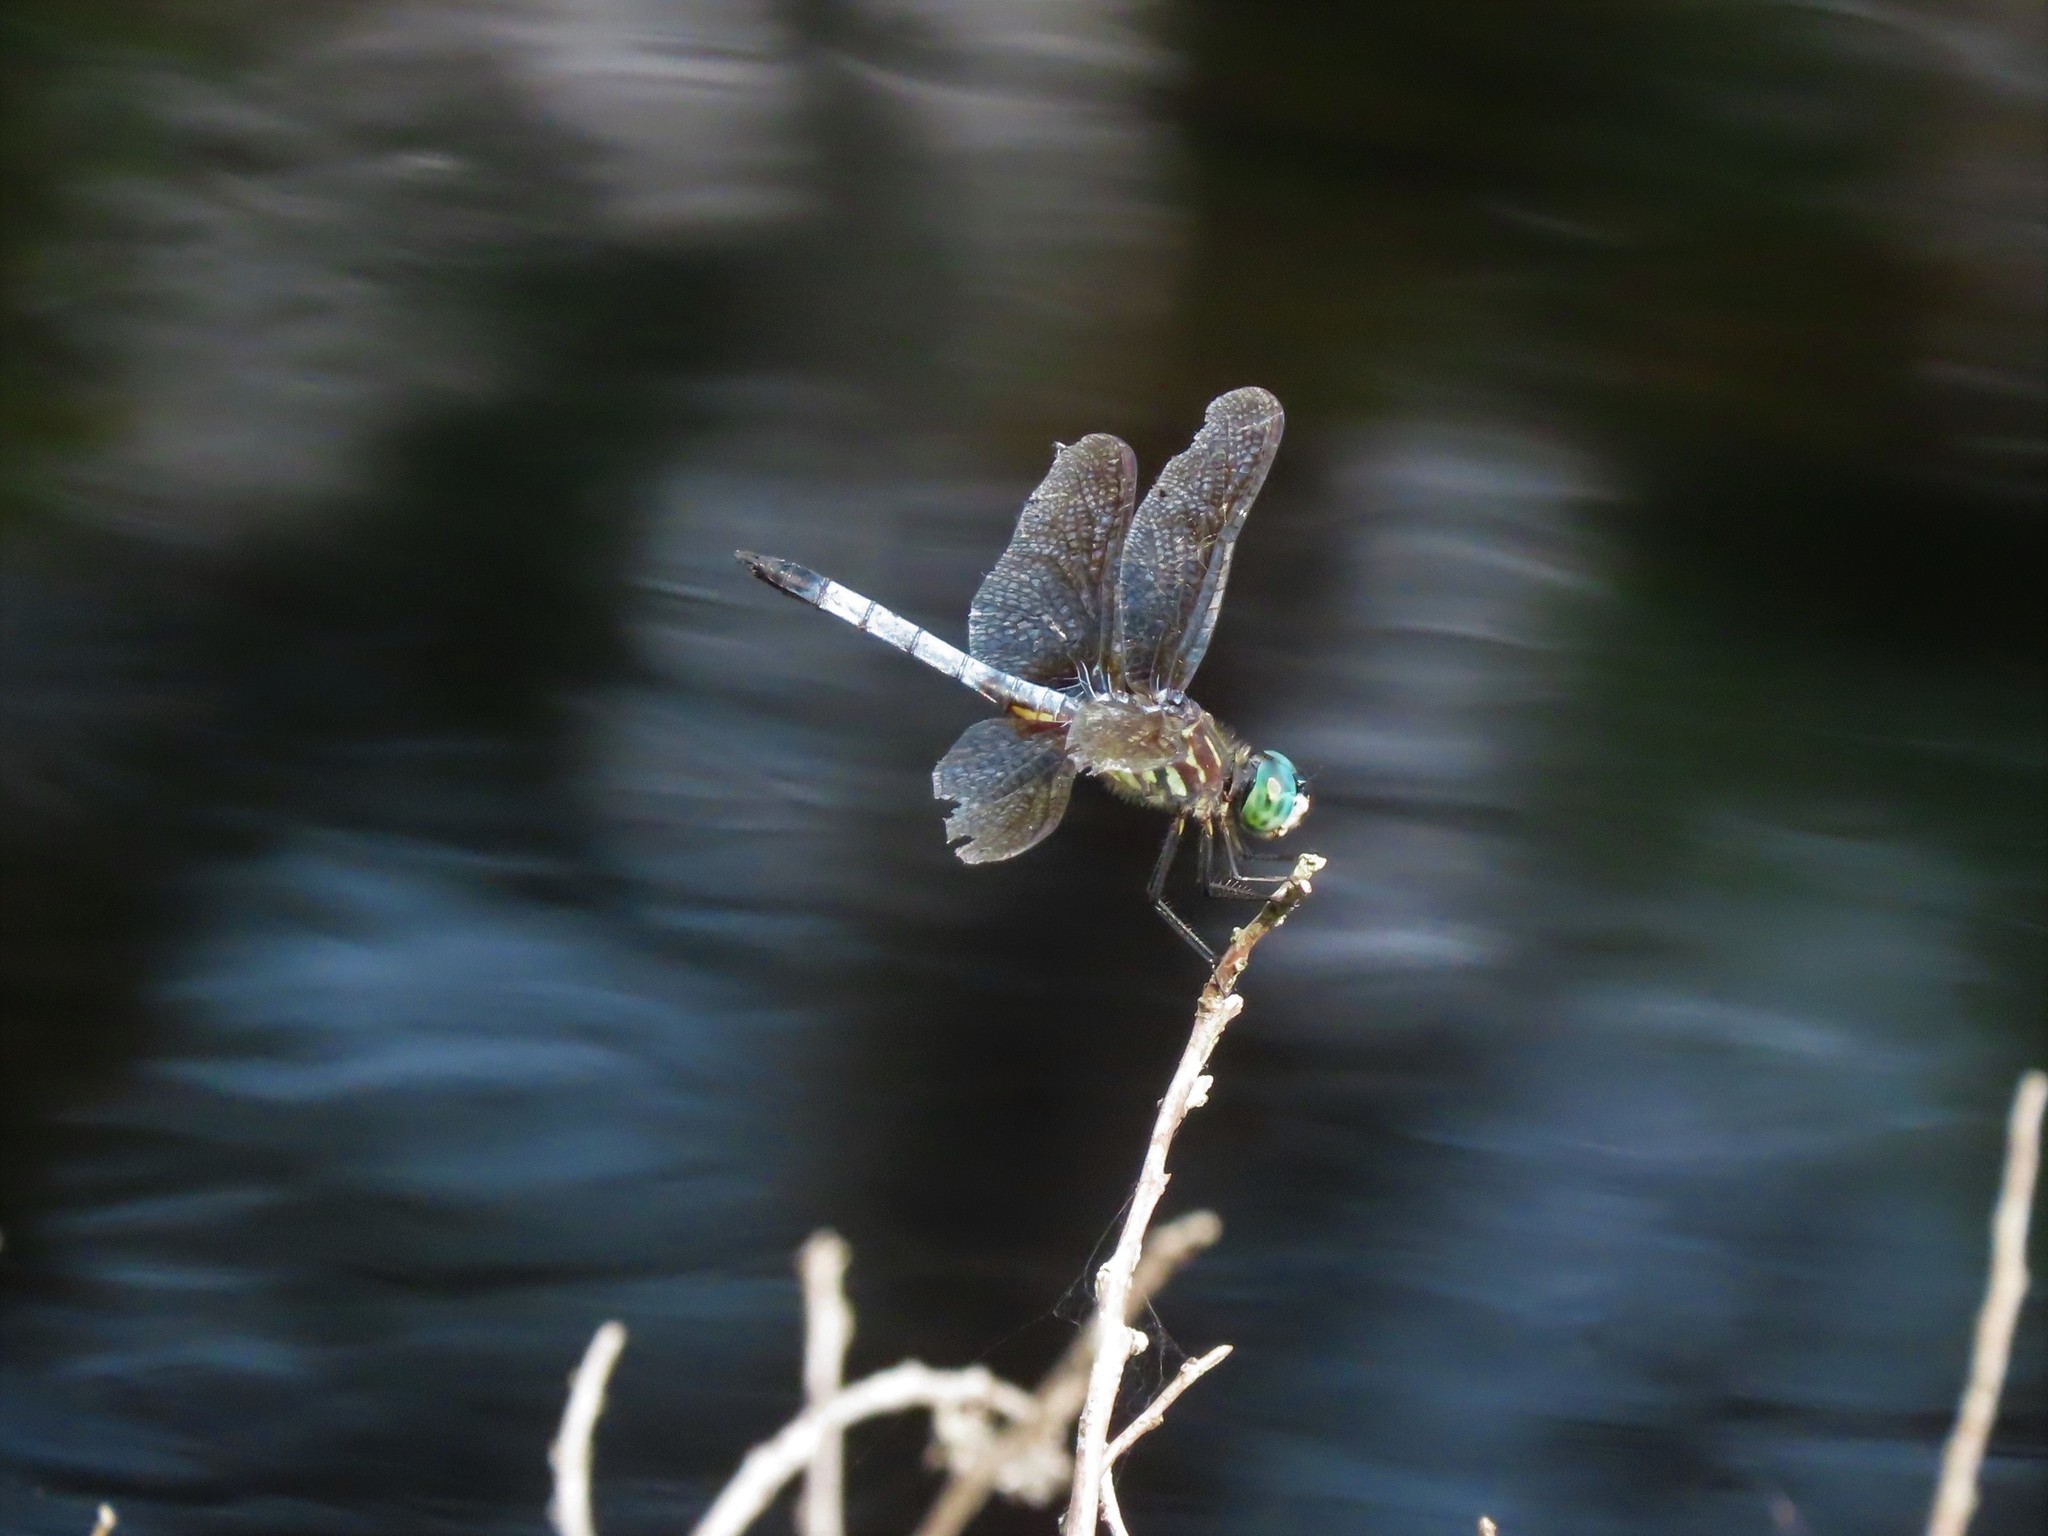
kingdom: Animalia
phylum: Arthropoda
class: Insecta
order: Odonata
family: Libellulidae
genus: Pachydiplax
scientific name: Pachydiplax longipennis
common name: Blue dasher
